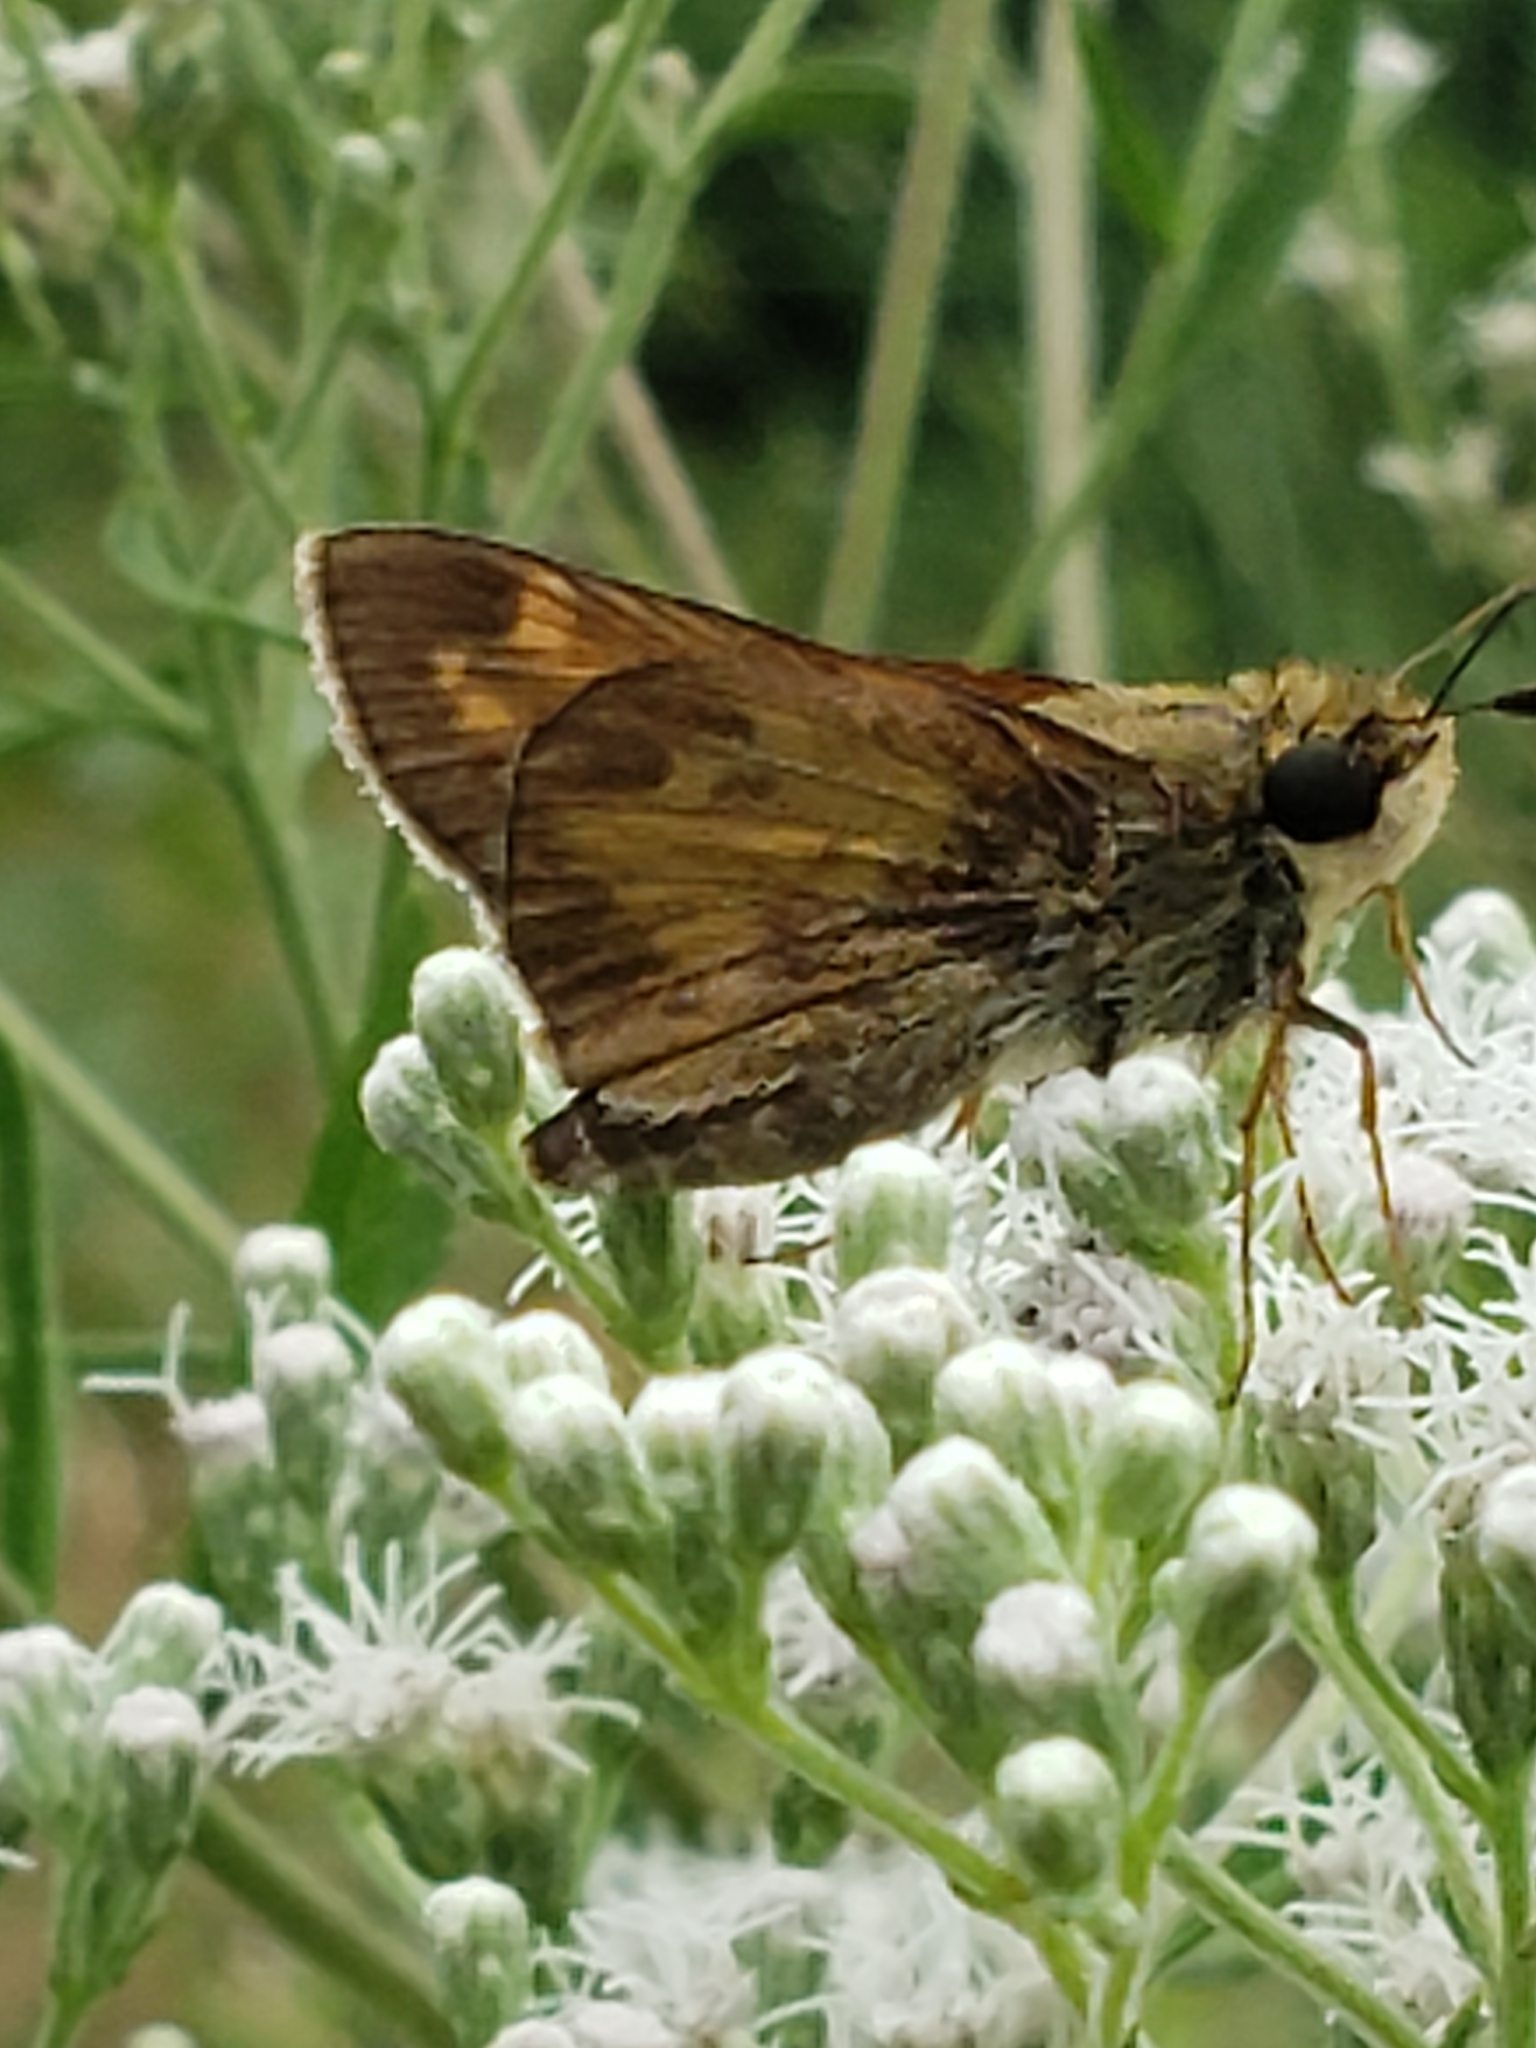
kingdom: Animalia
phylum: Arthropoda
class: Insecta
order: Lepidoptera
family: Hesperiidae
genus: Atalopedes
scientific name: Atalopedes
